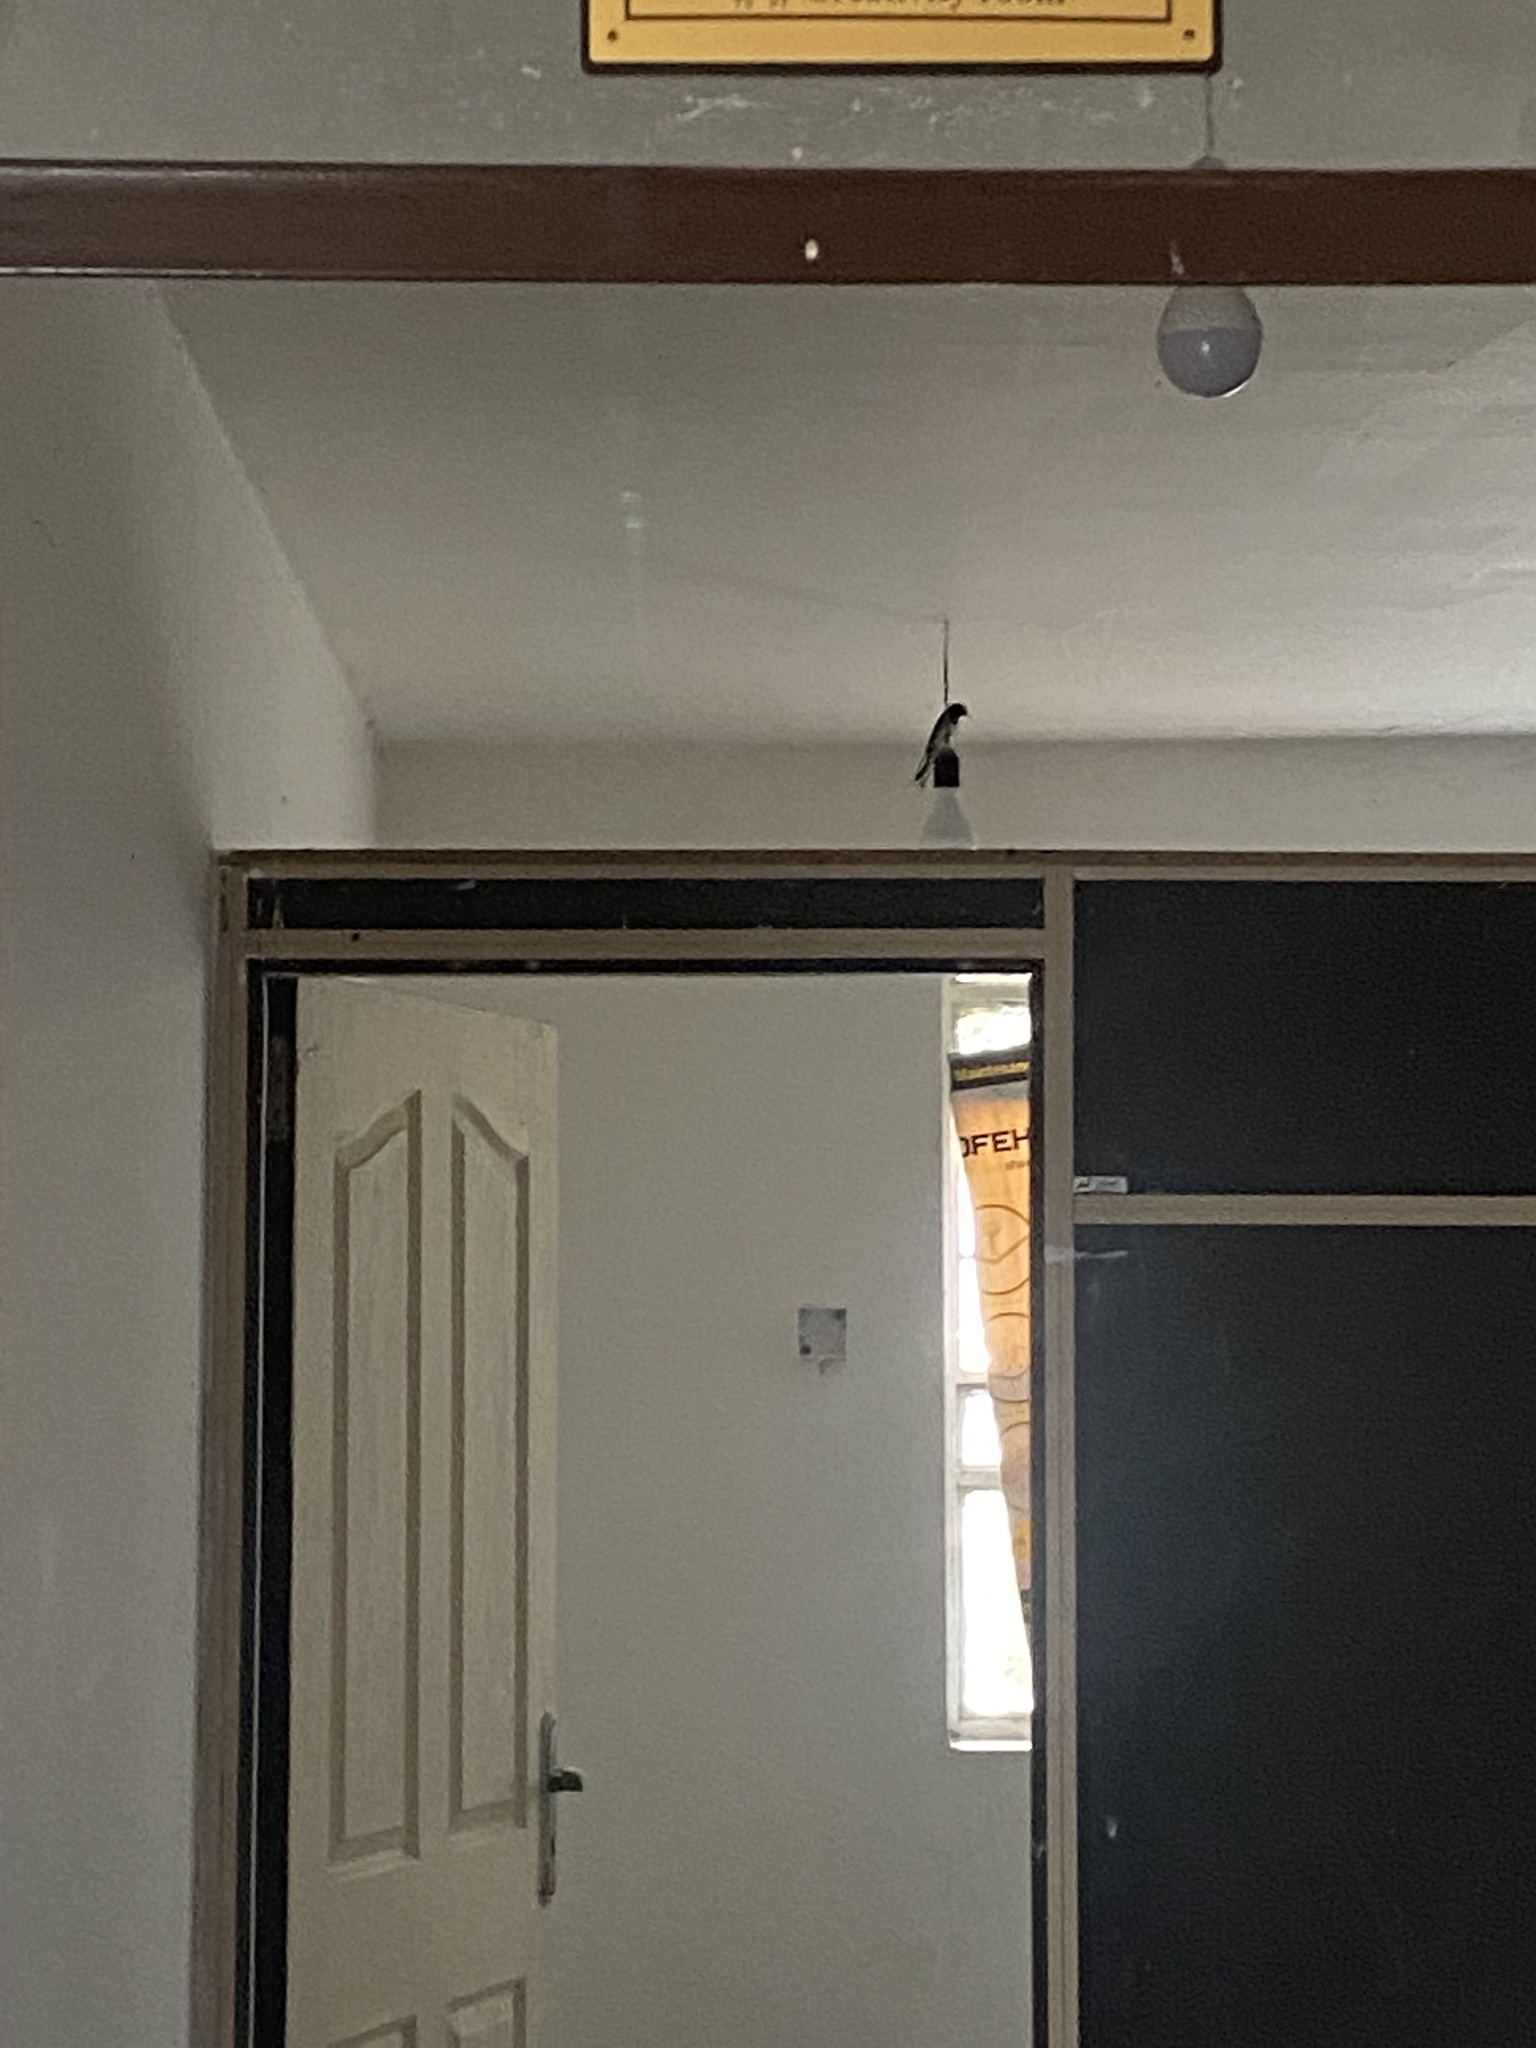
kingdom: Animalia
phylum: Chordata
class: Aves
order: Passeriformes
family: Hirundinidae
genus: Hirundo
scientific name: Hirundo rustica
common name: Barn swallow
